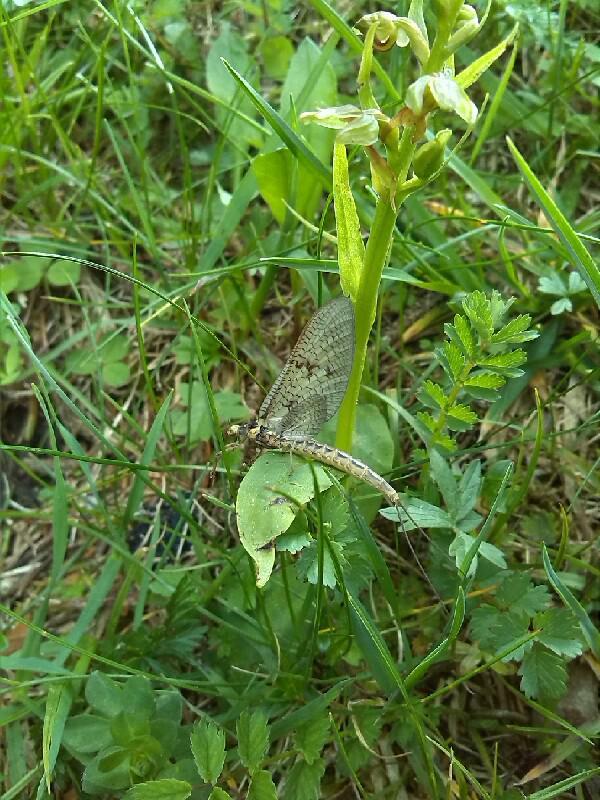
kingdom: Animalia
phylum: Arthropoda
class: Insecta
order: Ephemeroptera
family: Ephemeridae
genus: Ephemera
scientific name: Ephemera vulgata
